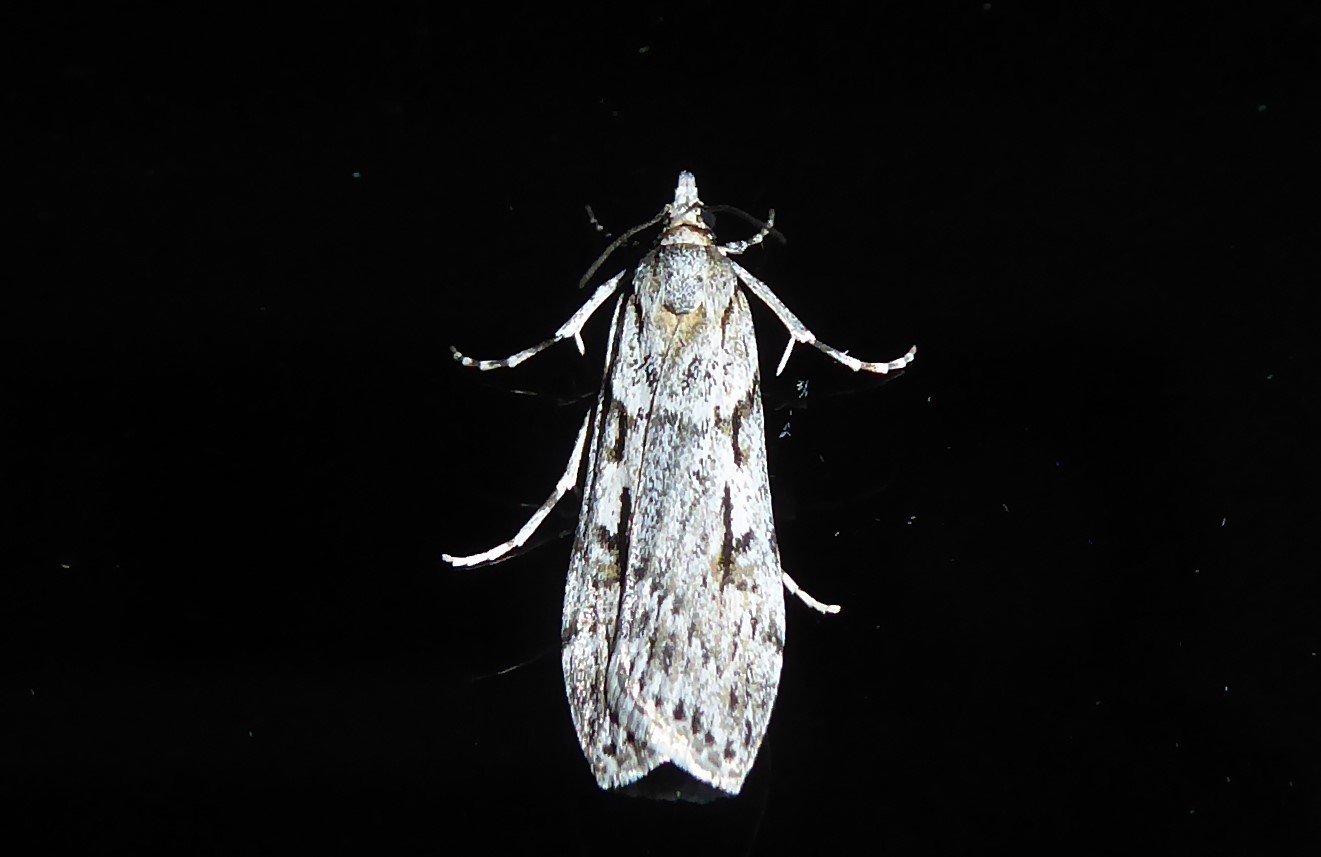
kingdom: Animalia
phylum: Arthropoda
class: Insecta
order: Lepidoptera
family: Crambidae
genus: Scoparia
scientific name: Scoparia halopis
